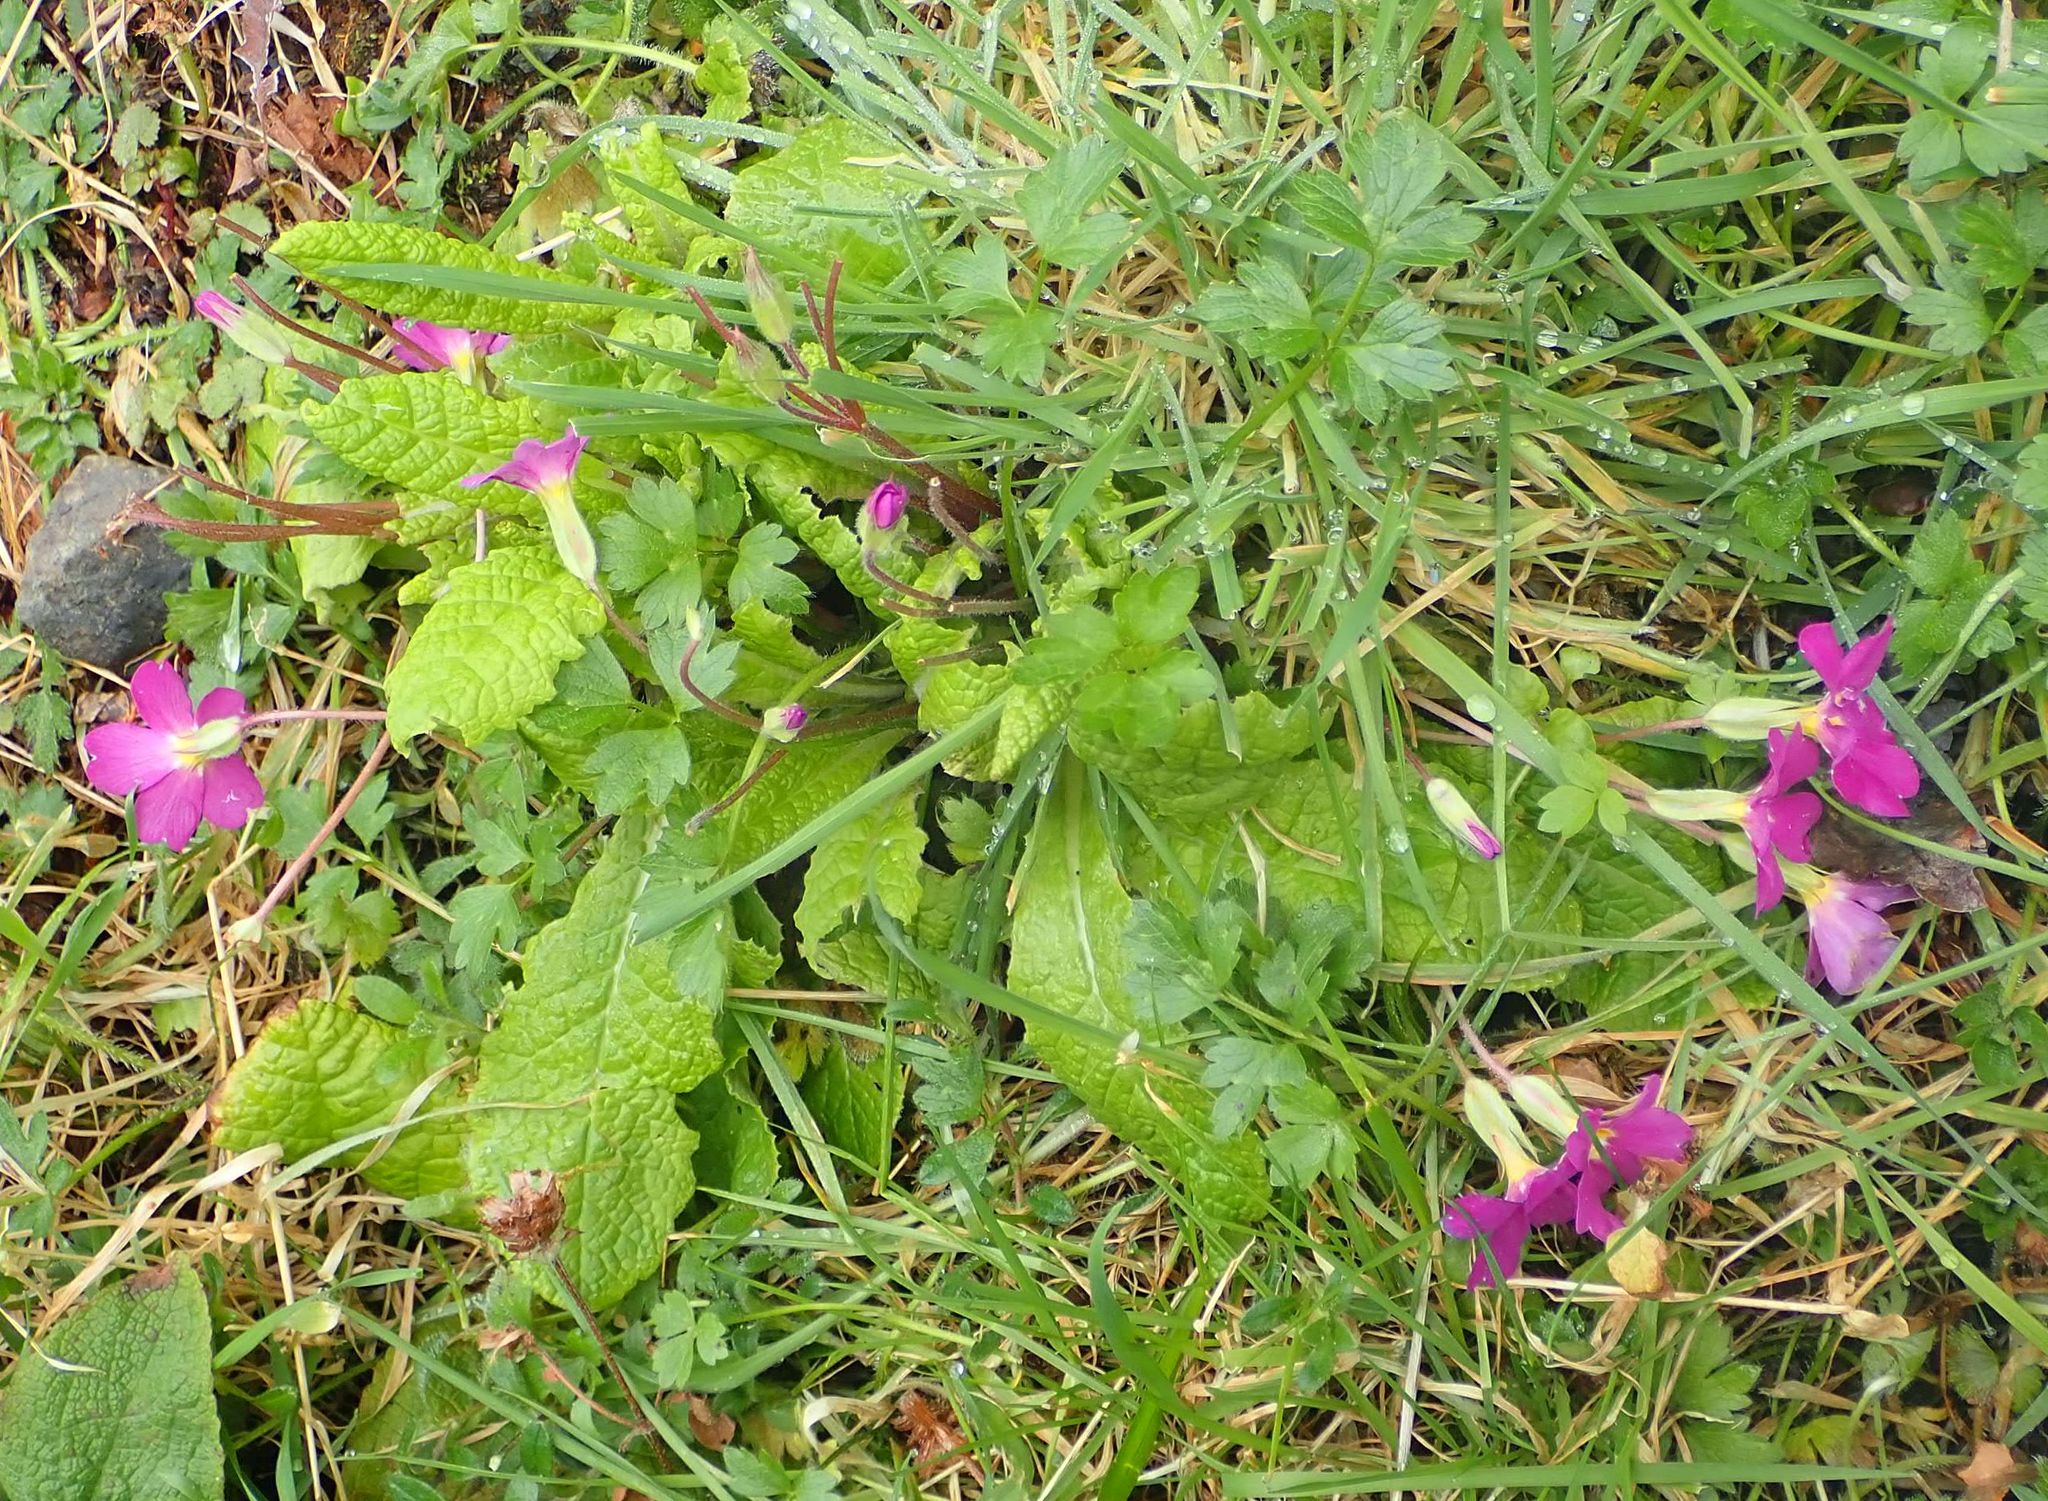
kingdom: Plantae
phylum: Tracheophyta
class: Magnoliopsida
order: Ericales
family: Primulaceae
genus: Primula
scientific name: Primula vulgaris
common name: Primrose
